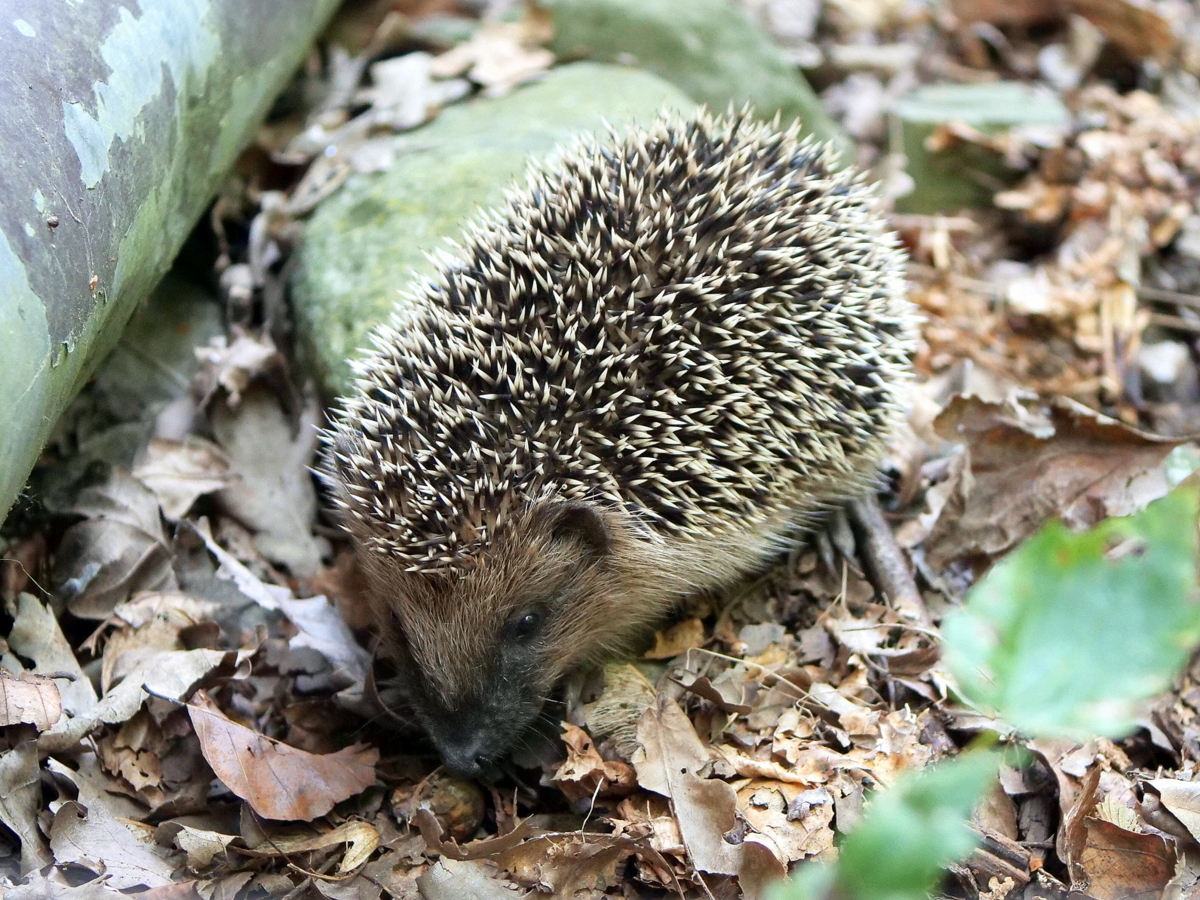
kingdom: Animalia
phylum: Chordata
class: Mammalia
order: Erinaceomorpha
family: Erinaceidae
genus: Erinaceus
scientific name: Erinaceus europaeus
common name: West european hedgehog
